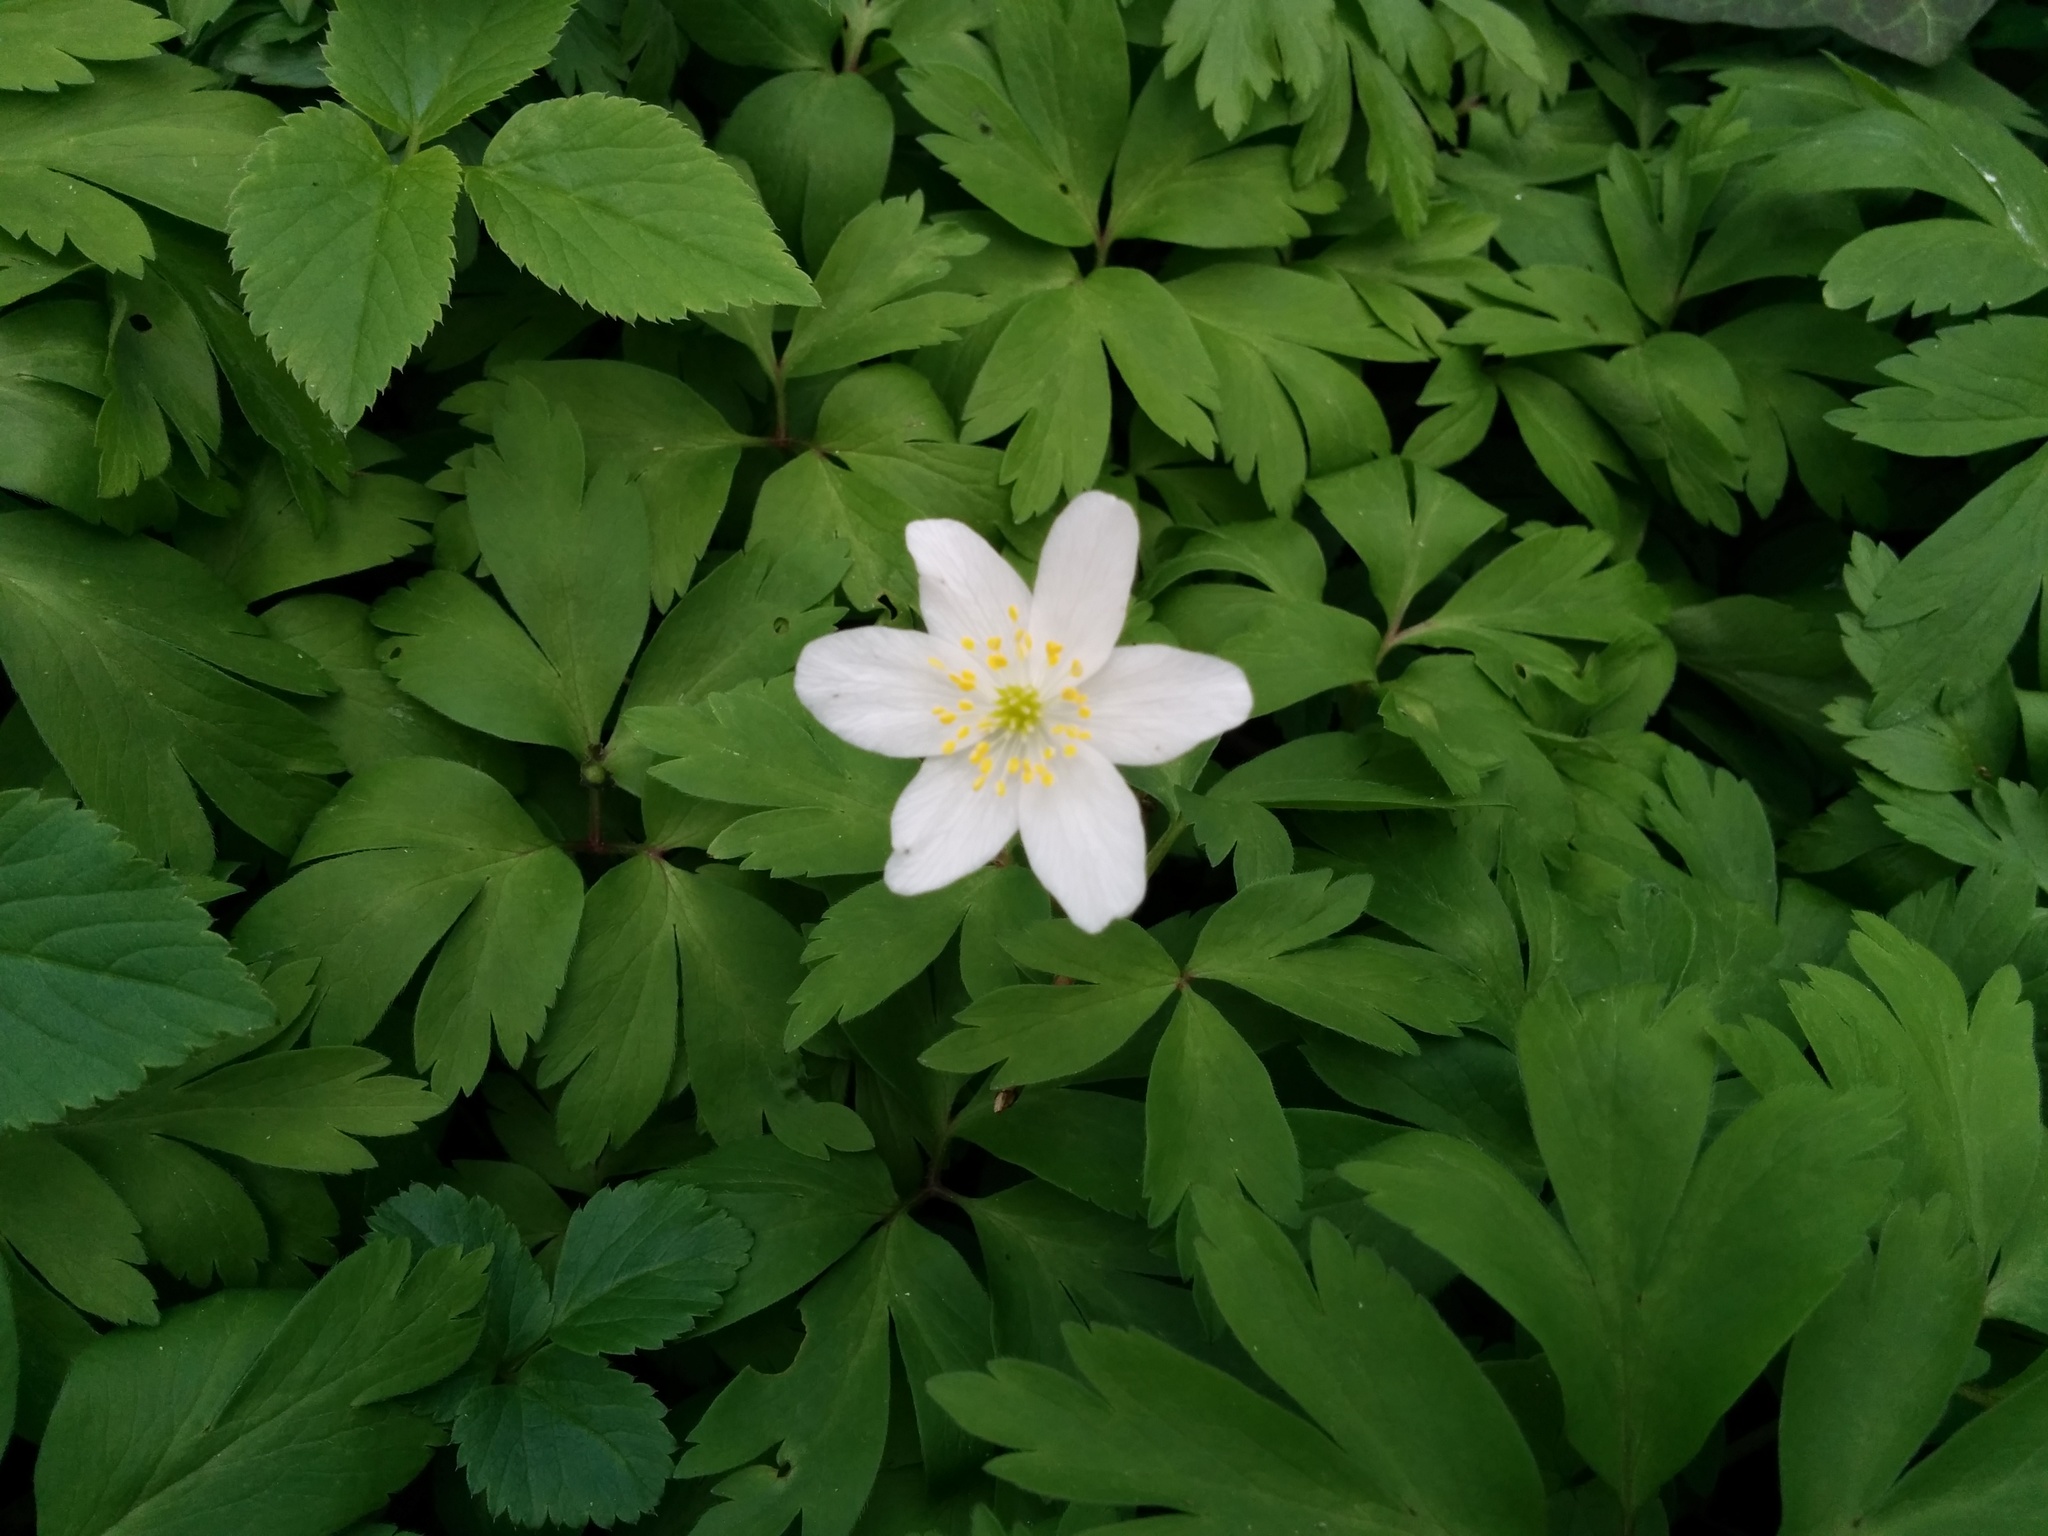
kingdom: Plantae
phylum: Tracheophyta
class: Magnoliopsida
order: Ranunculales
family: Ranunculaceae
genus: Anemone
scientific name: Anemone nemorosa
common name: Wood anemone
